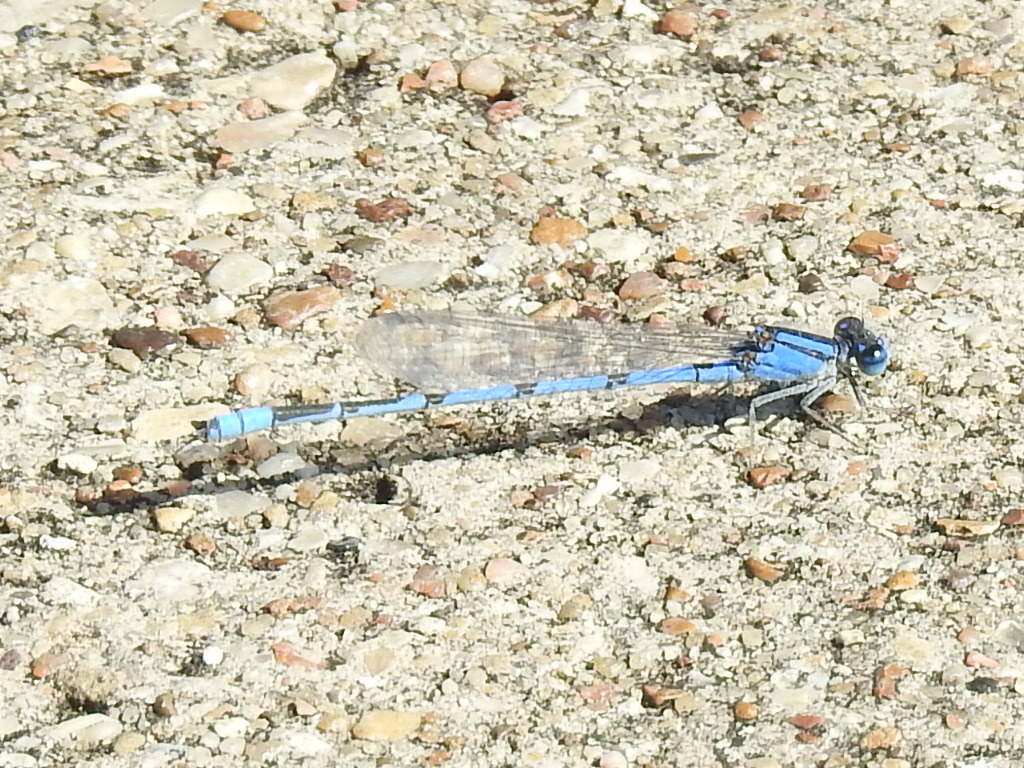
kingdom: Animalia
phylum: Arthropoda
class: Insecta
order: Odonata
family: Coenagrionidae
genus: Enallagma
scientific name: Enallagma civile
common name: Damselfly
